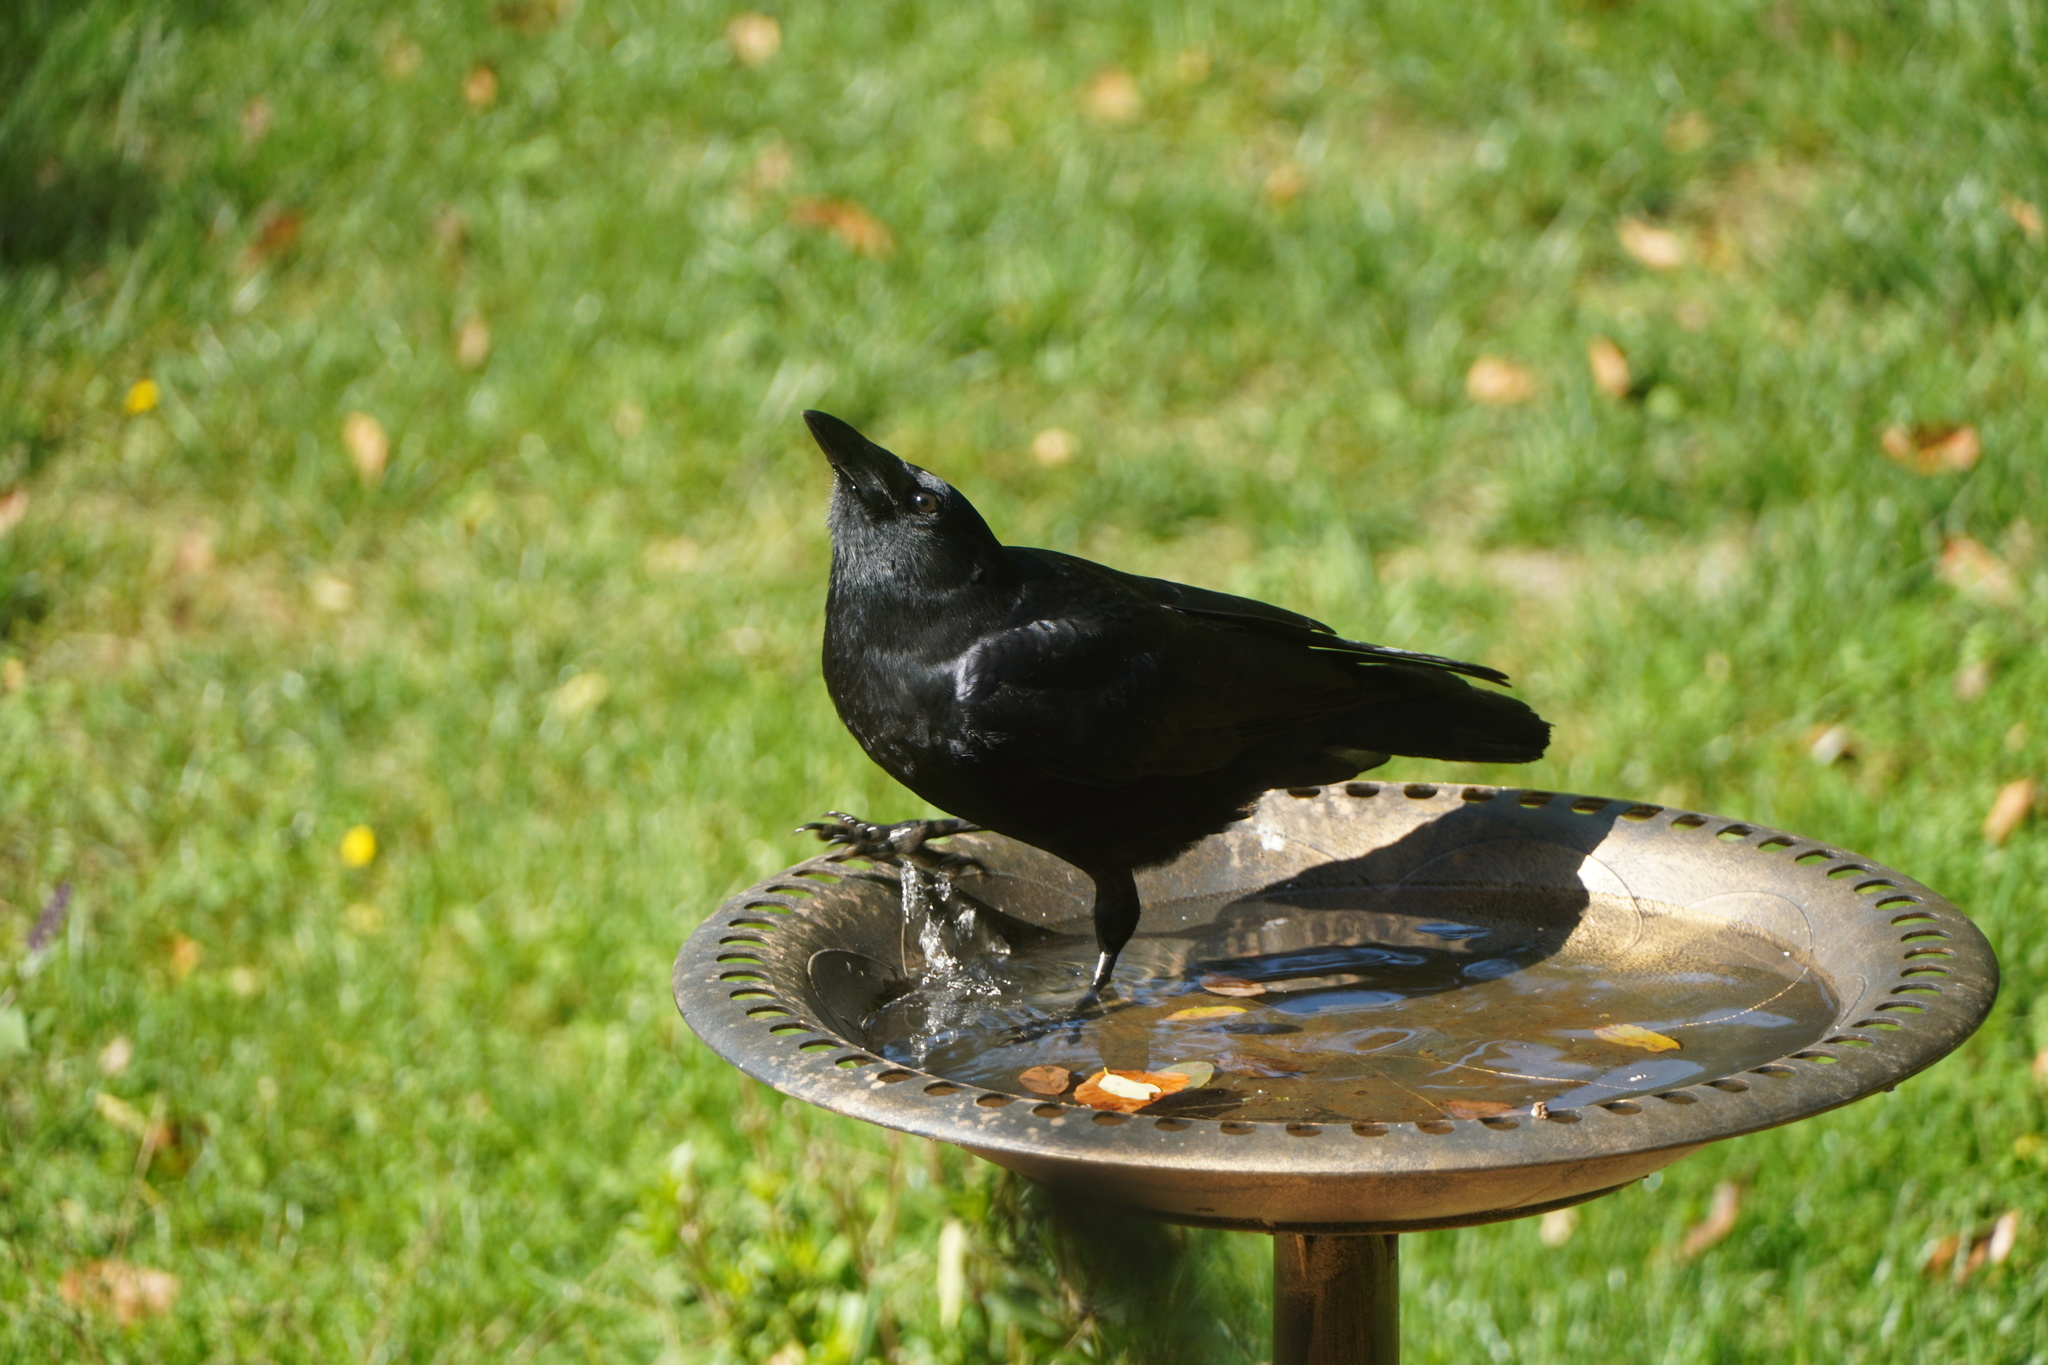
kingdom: Animalia
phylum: Chordata
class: Aves
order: Passeriformes
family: Corvidae
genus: Corvus
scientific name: Corvus brachyrhynchos
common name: American crow
